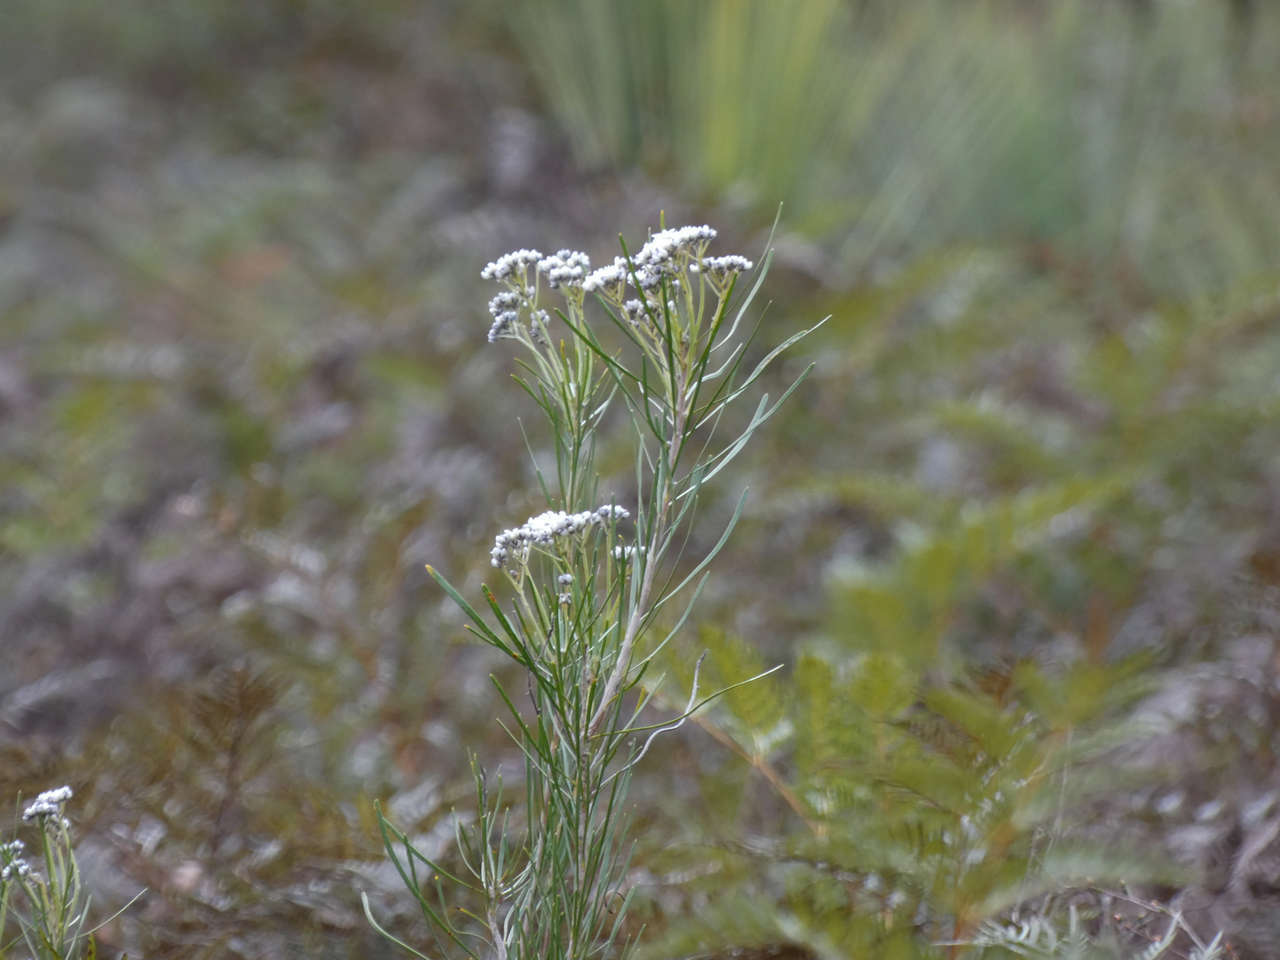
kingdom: Plantae
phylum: Tracheophyta
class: Magnoliopsida
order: Proteales
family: Proteaceae
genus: Conospermum
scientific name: Conospermum mitchellii
